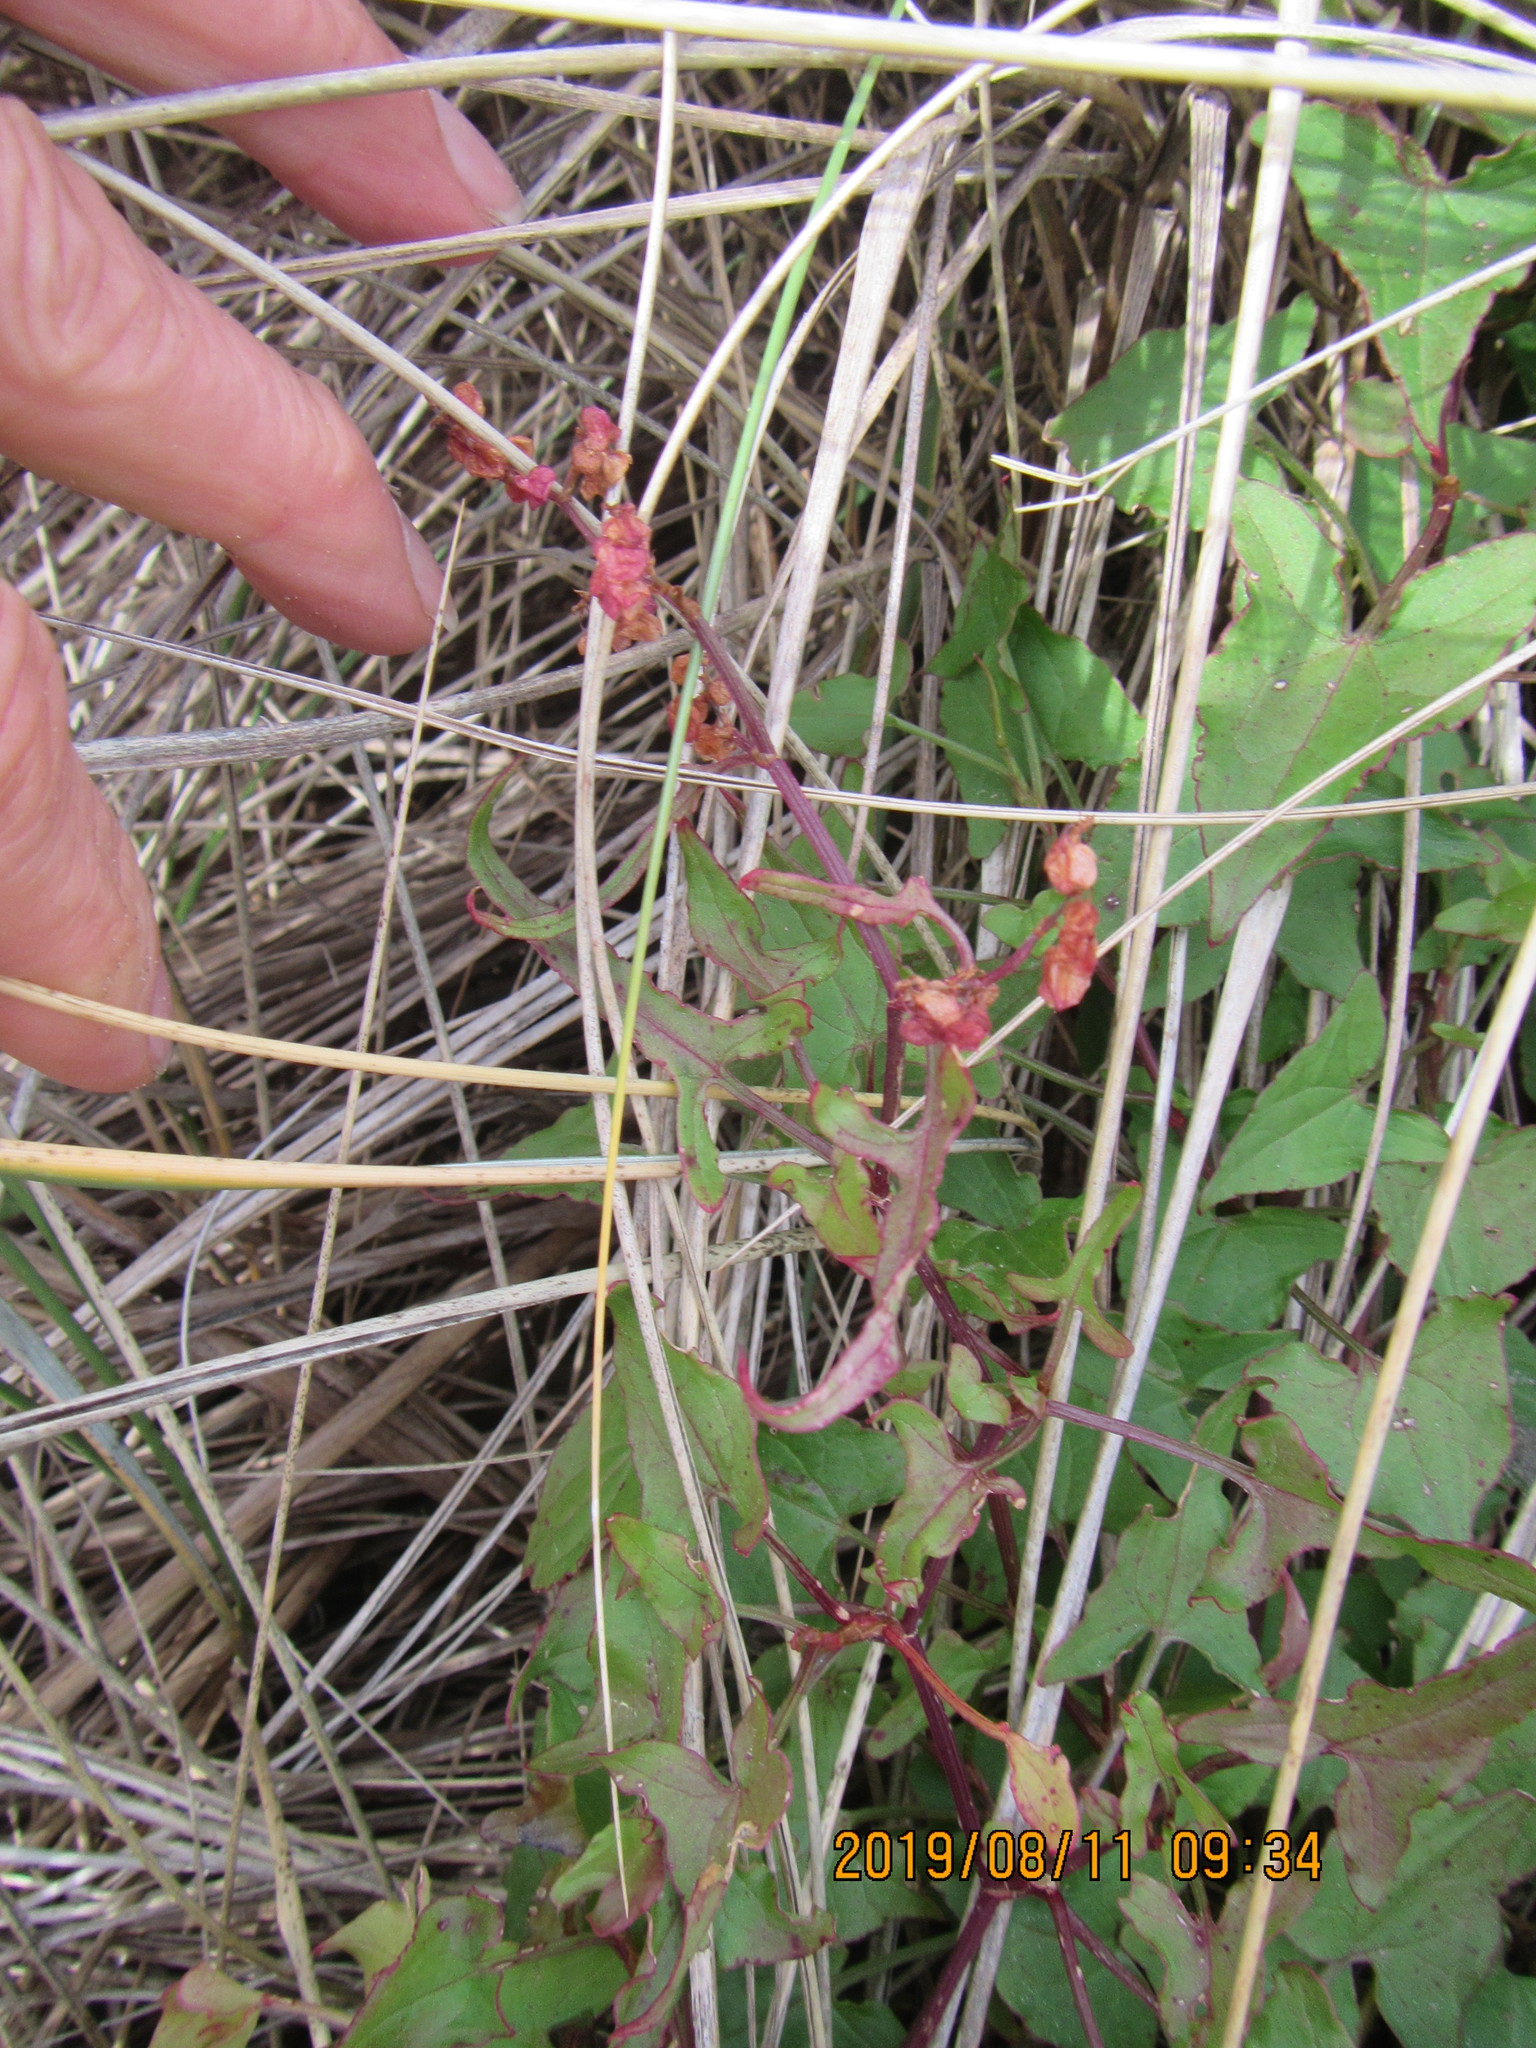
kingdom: Plantae
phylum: Tracheophyta
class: Magnoliopsida
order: Caryophyllales
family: Polygonaceae
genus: Rumex
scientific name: Rumex sagittatus
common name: Climbing dock
